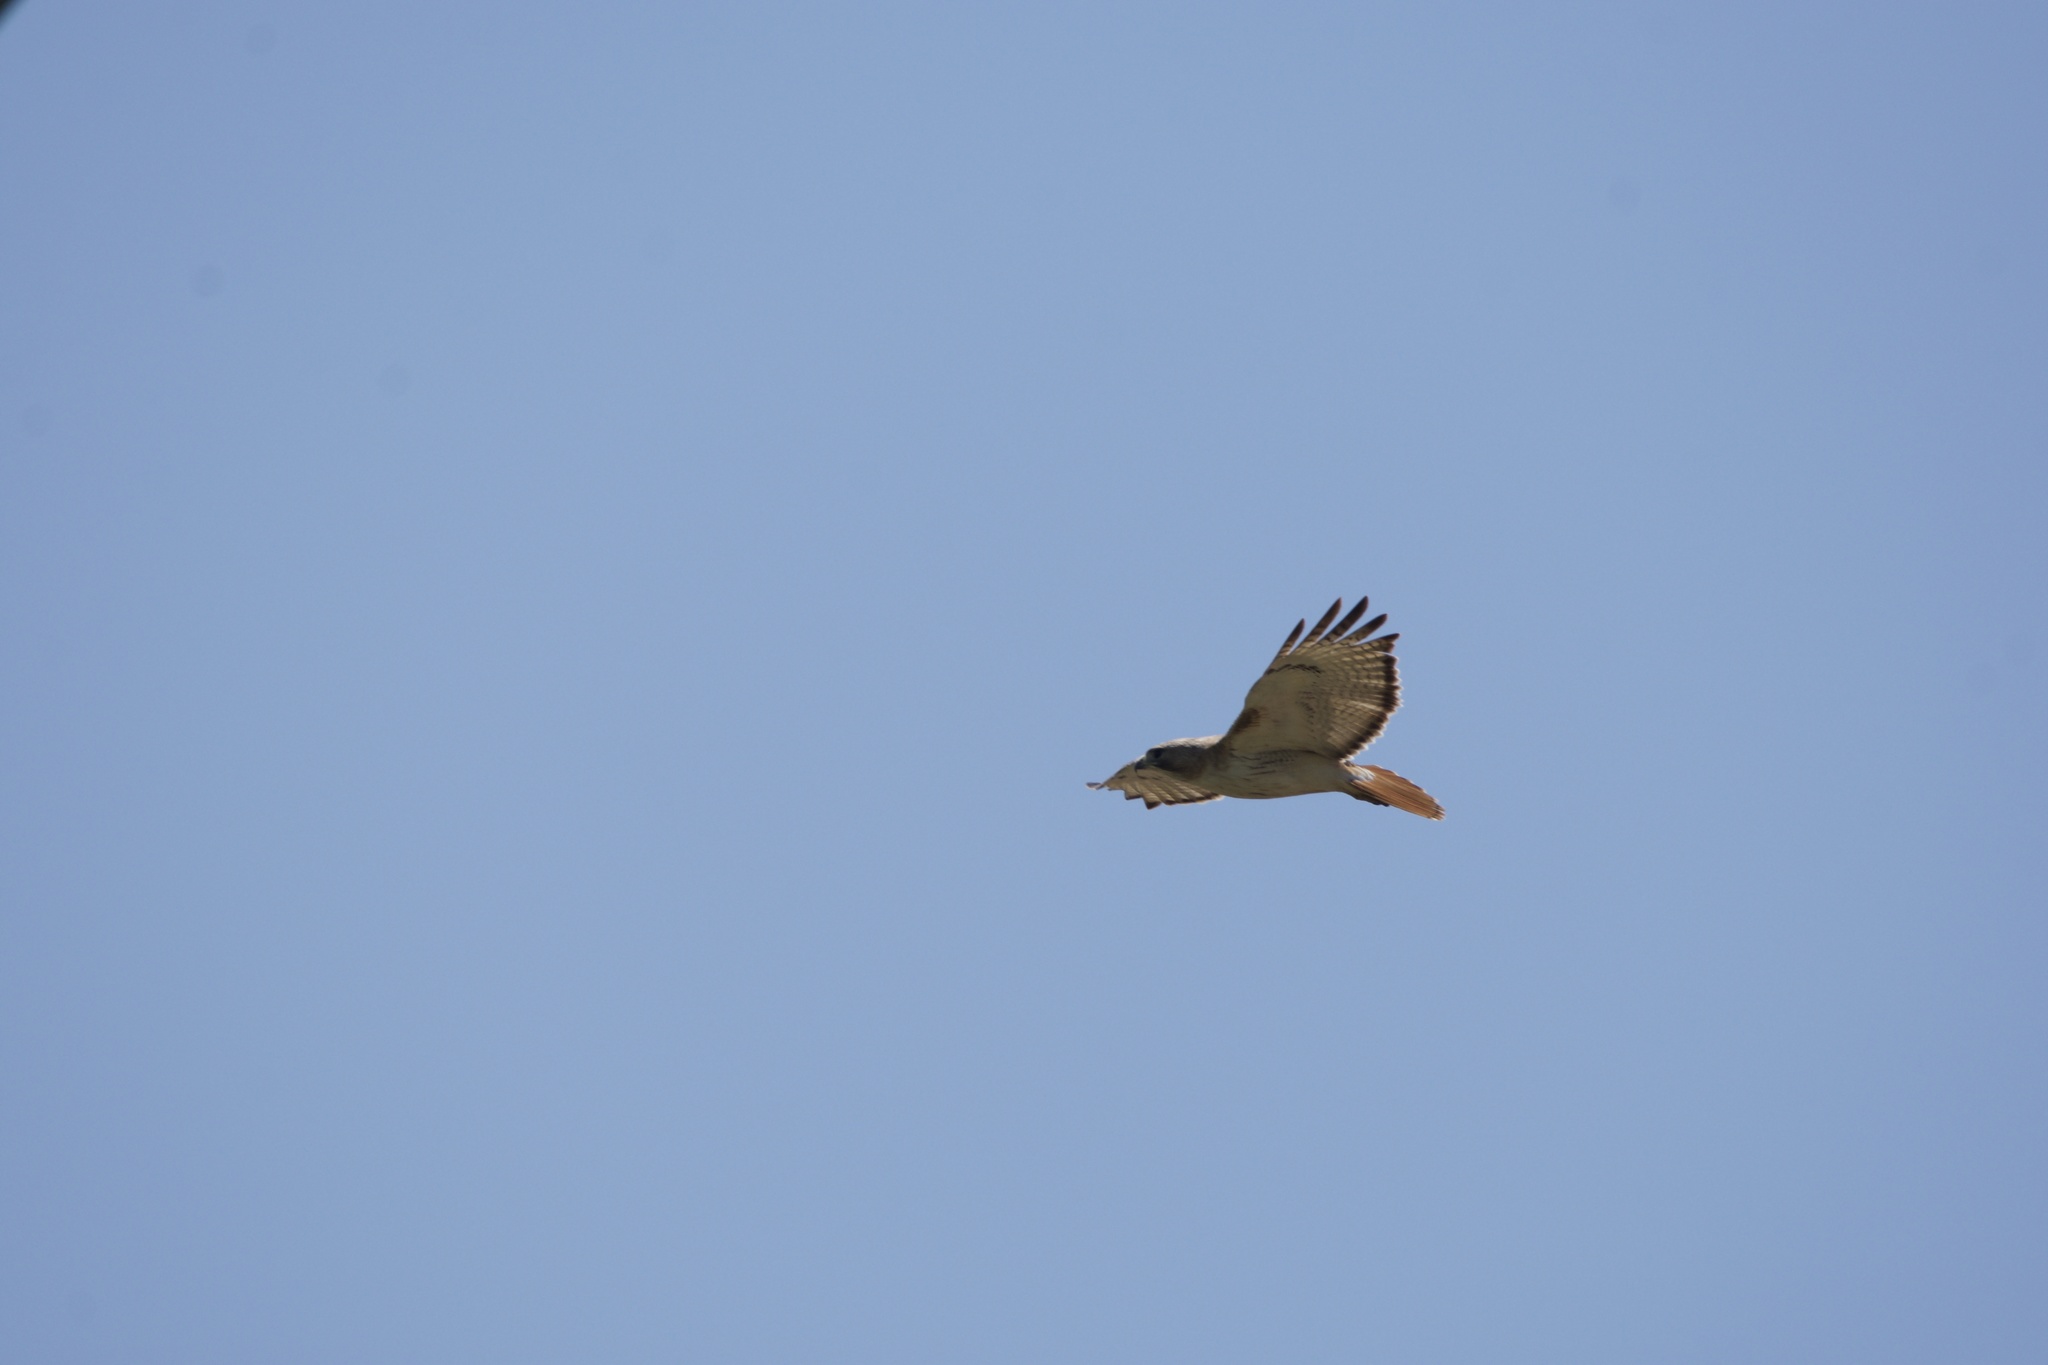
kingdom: Animalia
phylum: Chordata
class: Aves
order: Accipitriformes
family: Accipitridae
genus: Buteo
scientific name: Buteo jamaicensis
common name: Red-tailed hawk
